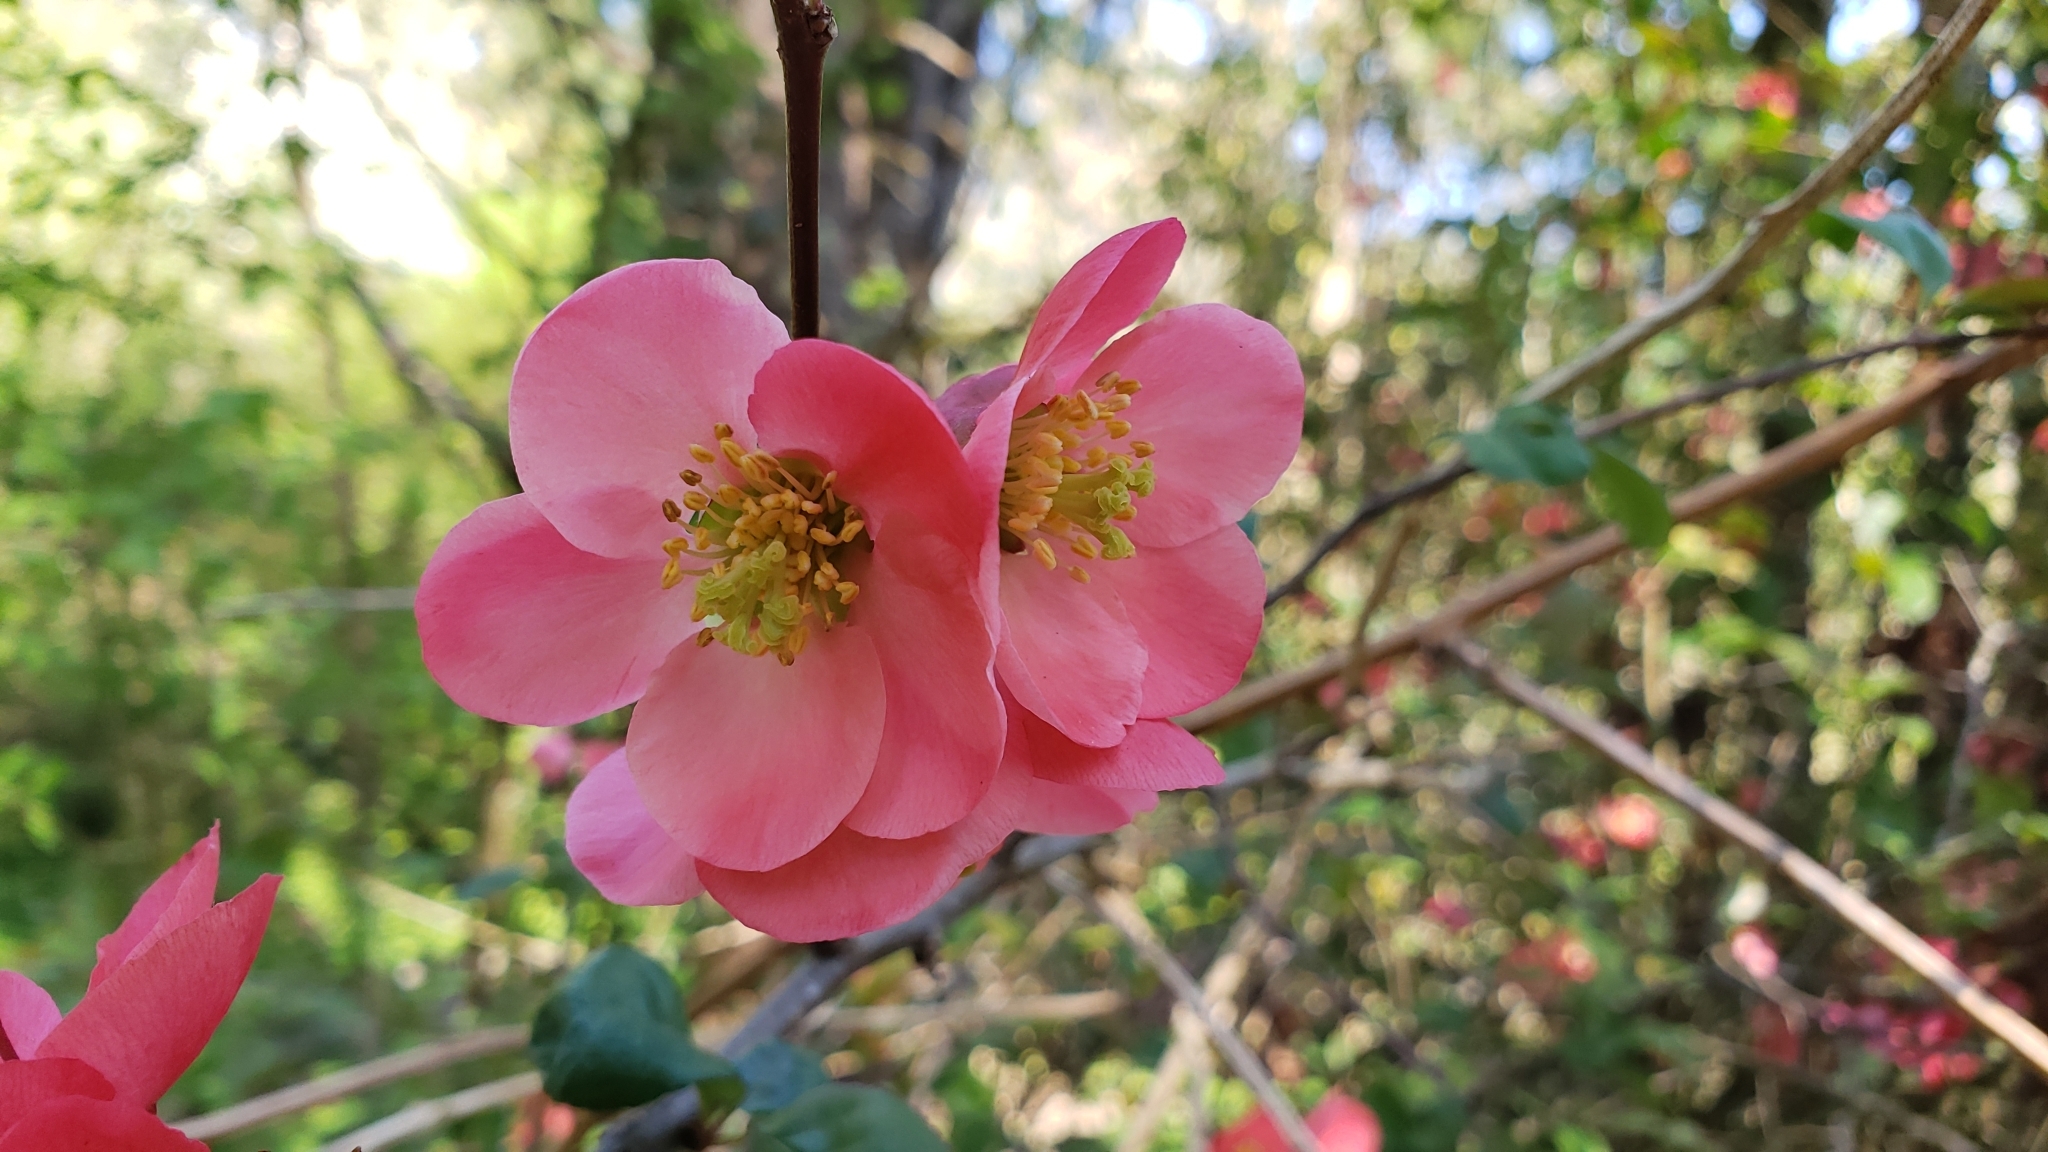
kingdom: Plantae
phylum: Tracheophyta
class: Magnoliopsida
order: Rosales
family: Rosaceae
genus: Chaenomeles
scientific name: Chaenomeles speciosa
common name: Japanese quince
